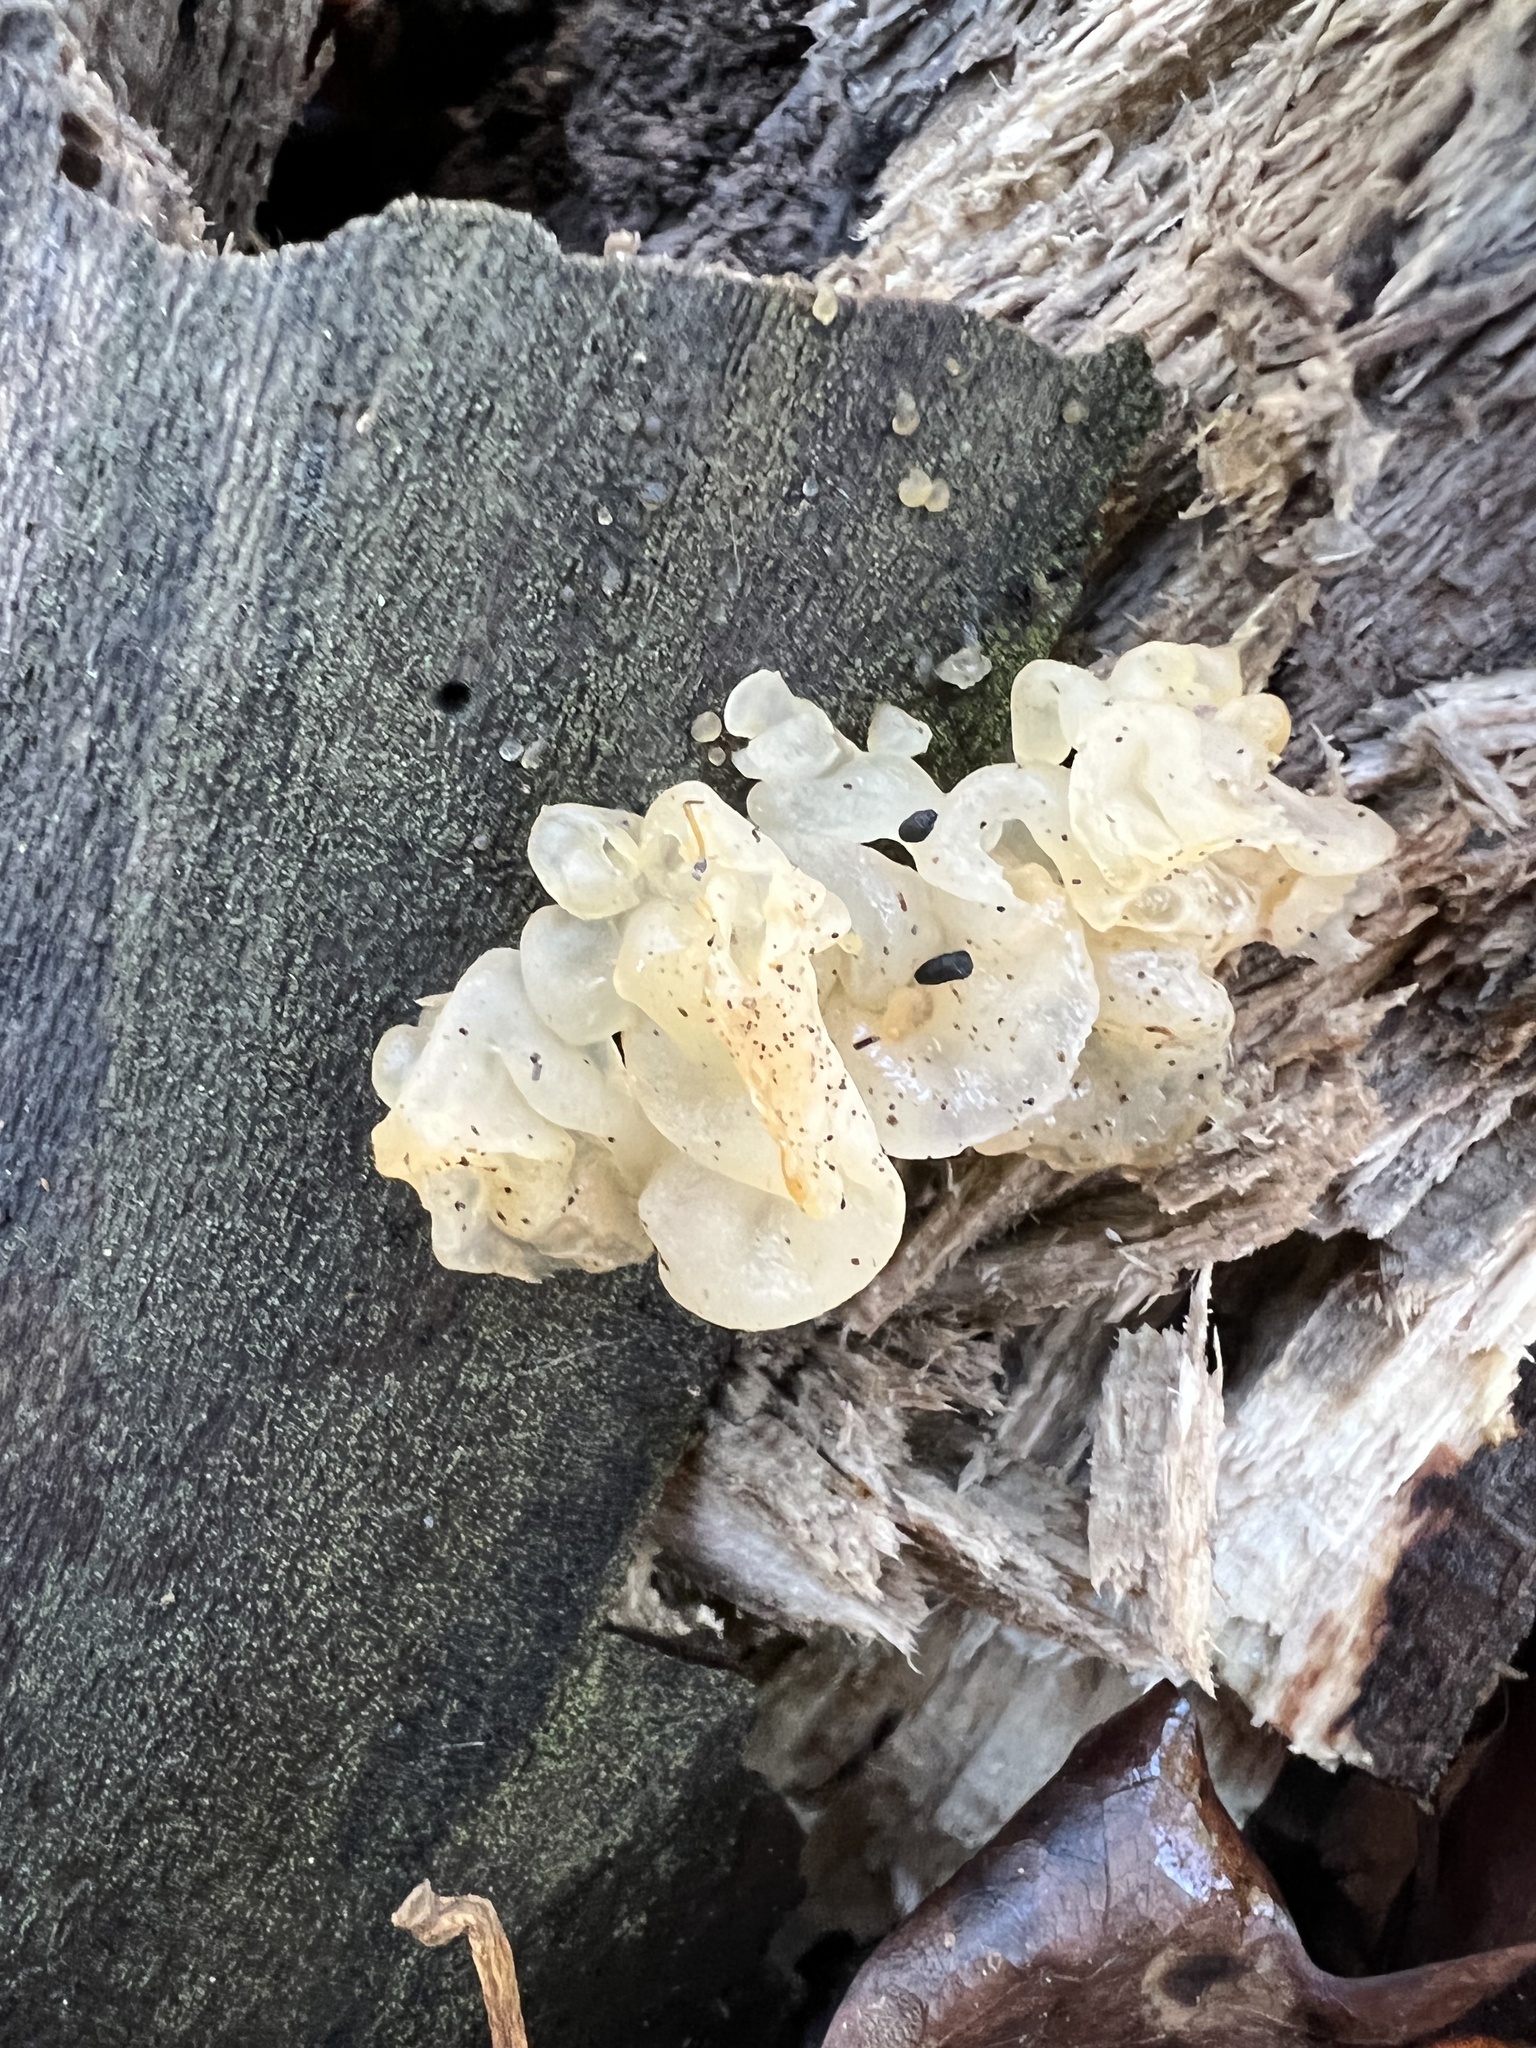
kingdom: Fungi
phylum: Basidiomycota
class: Agaricomycetes
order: Auriculariales
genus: Ductifera
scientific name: Ductifera pululahuana
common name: White jelly fungus
